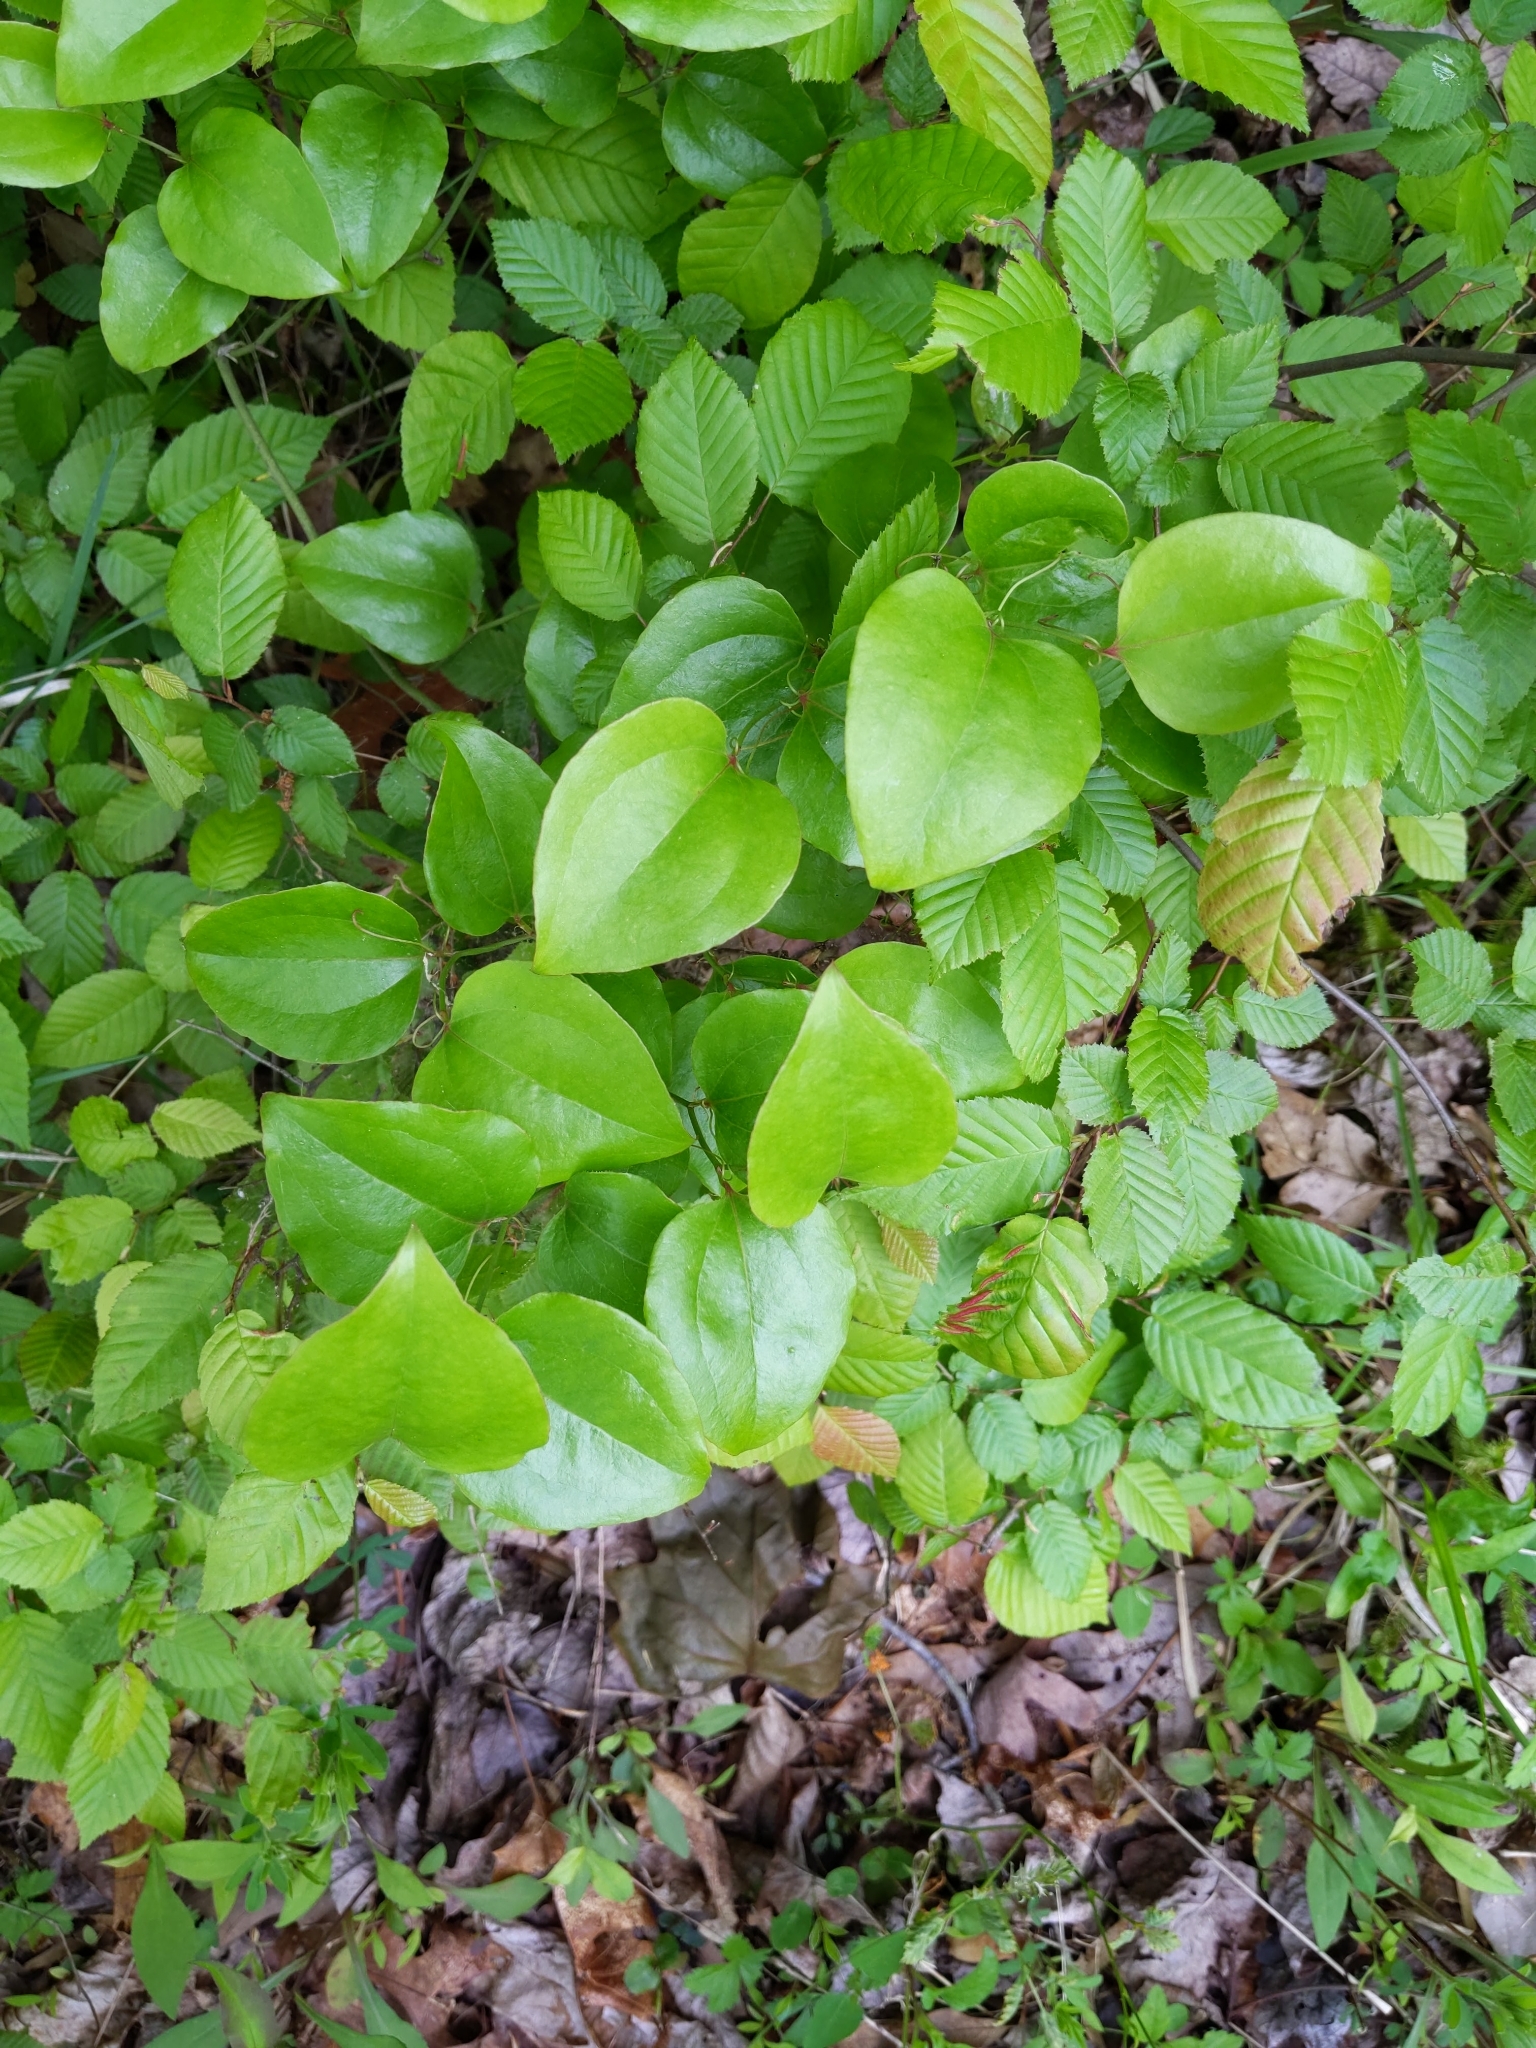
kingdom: Plantae
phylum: Tracheophyta
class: Liliopsida
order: Liliales
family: Smilacaceae
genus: Smilax
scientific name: Smilax rotundifolia
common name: Bullbriar
